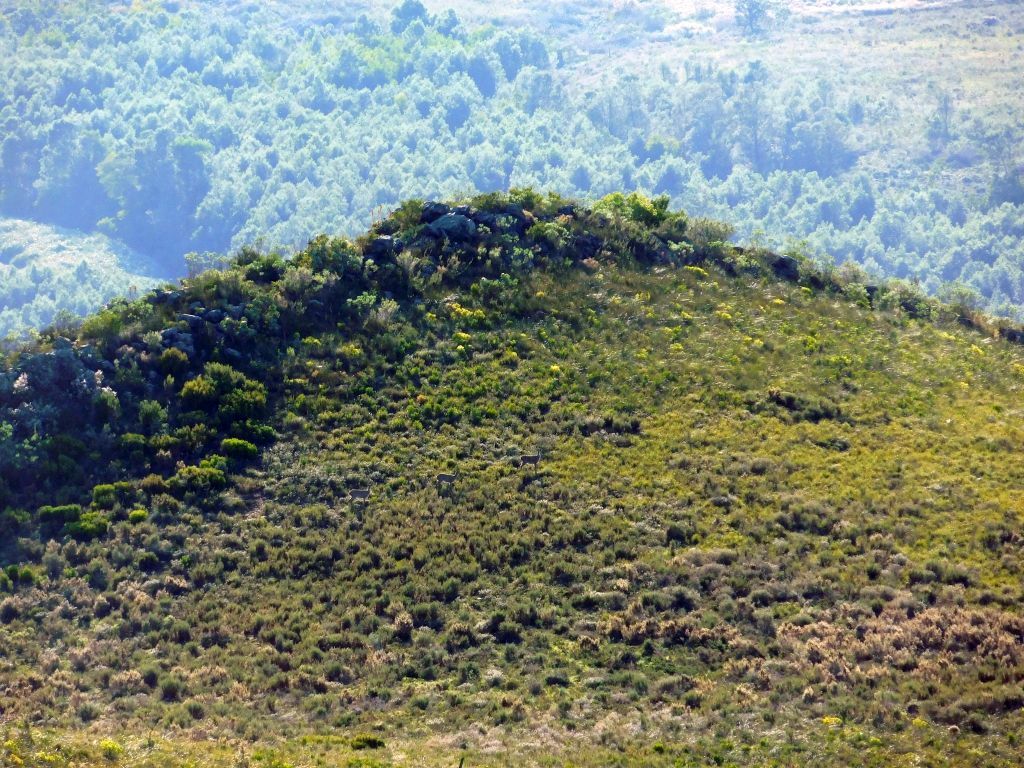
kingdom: Animalia
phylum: Chordata
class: Mammalia
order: Artiodactyla
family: Bovidae
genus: Pelea
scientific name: Pelea capreolus
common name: Common rhebok
